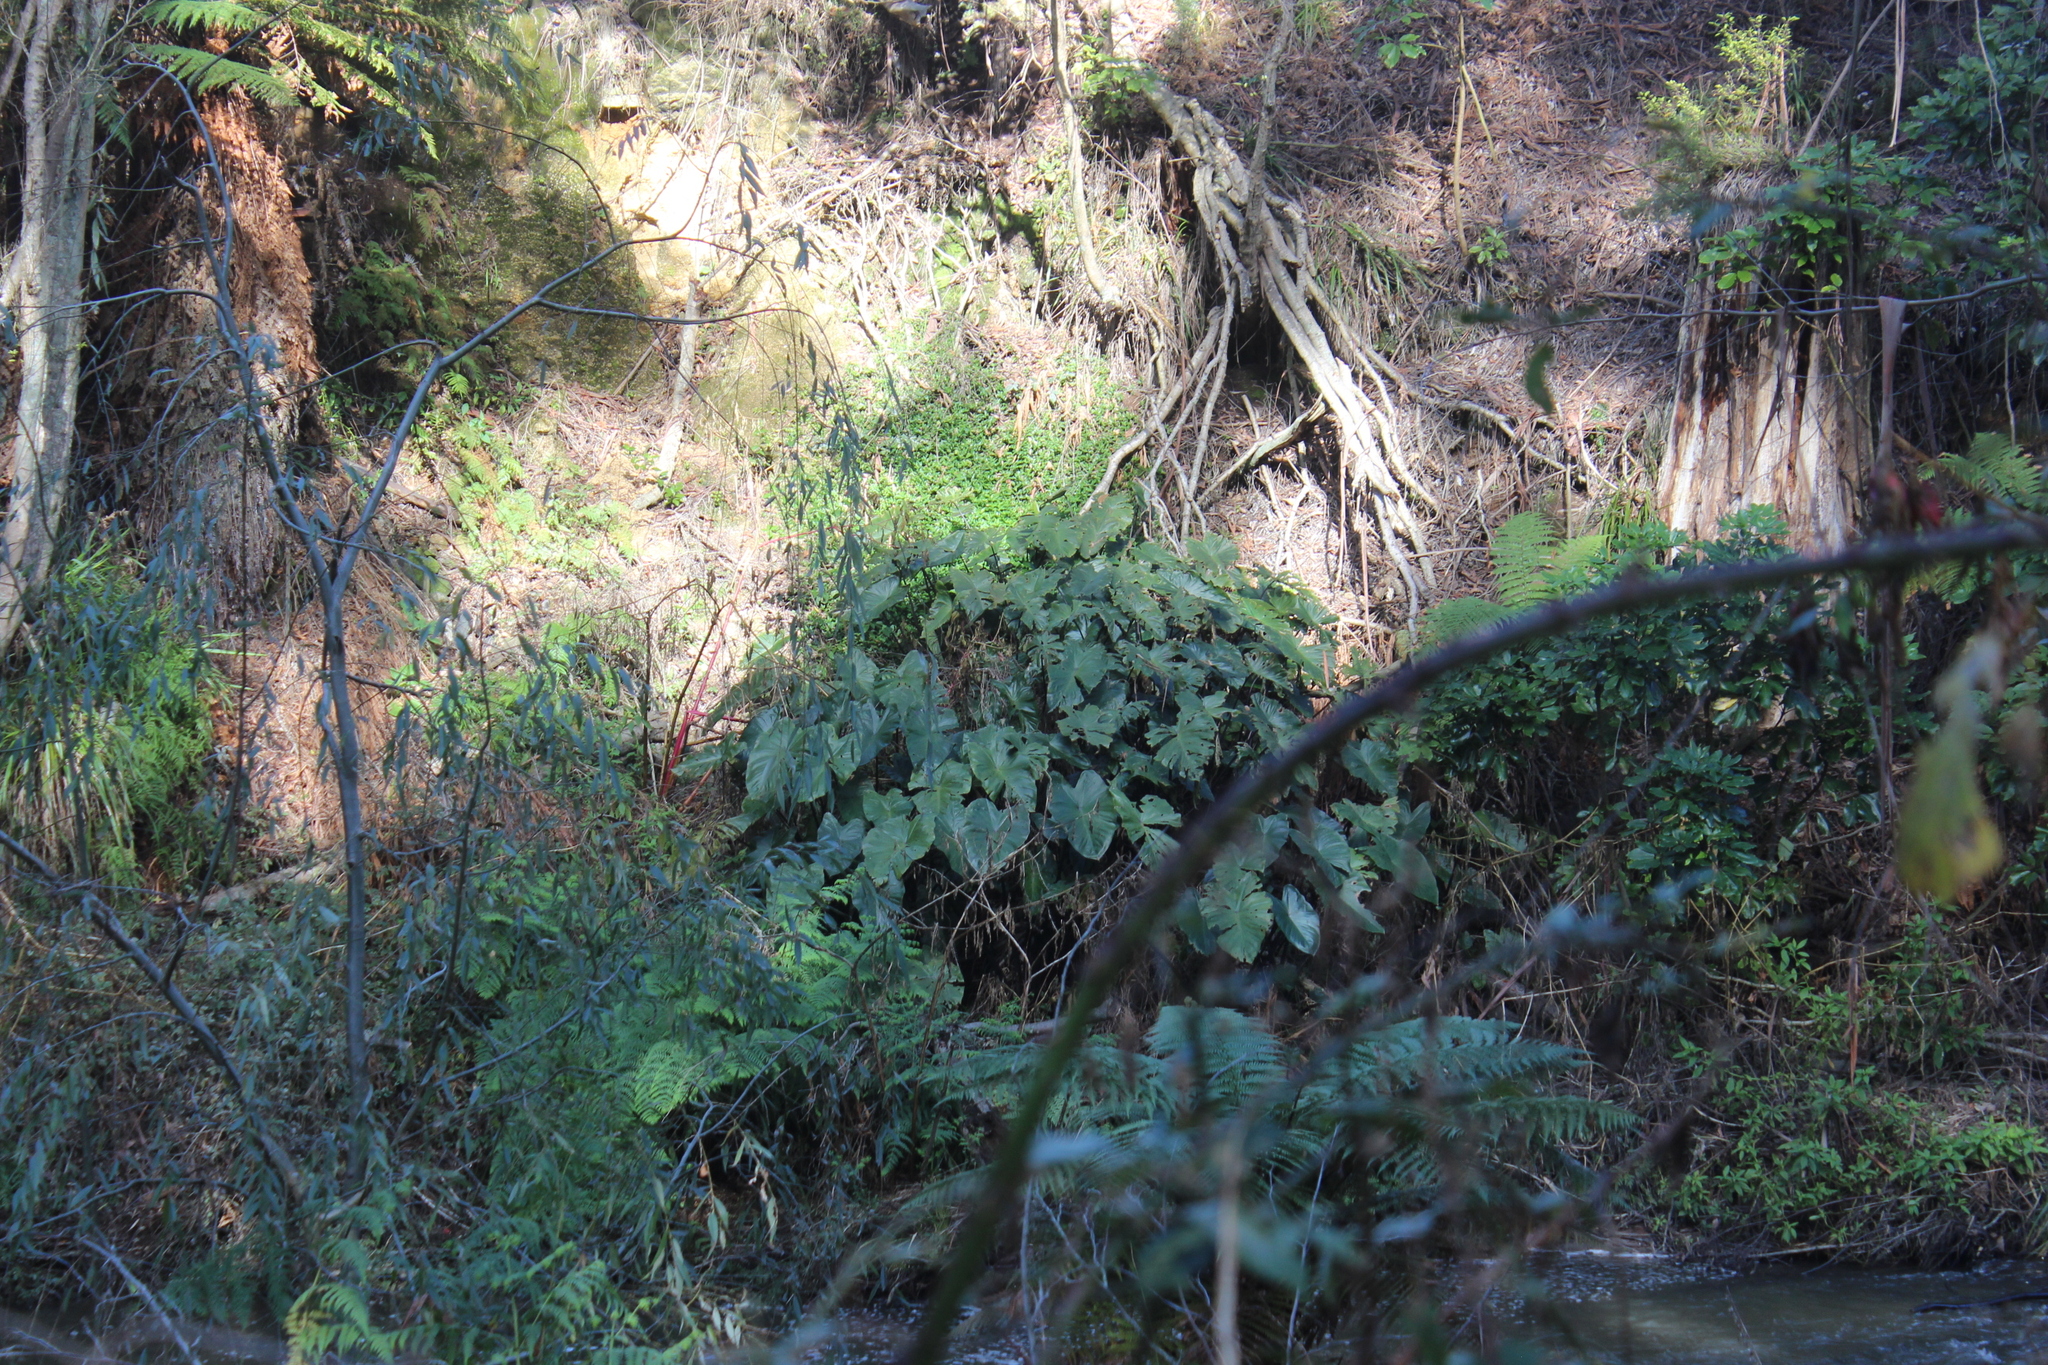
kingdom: Plantae
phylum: Tracheophyta
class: Liliopsida
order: Alismatales
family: Araceae
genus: Zantedeschia
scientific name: Zantedeschia aethiopica
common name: Altar-lily
